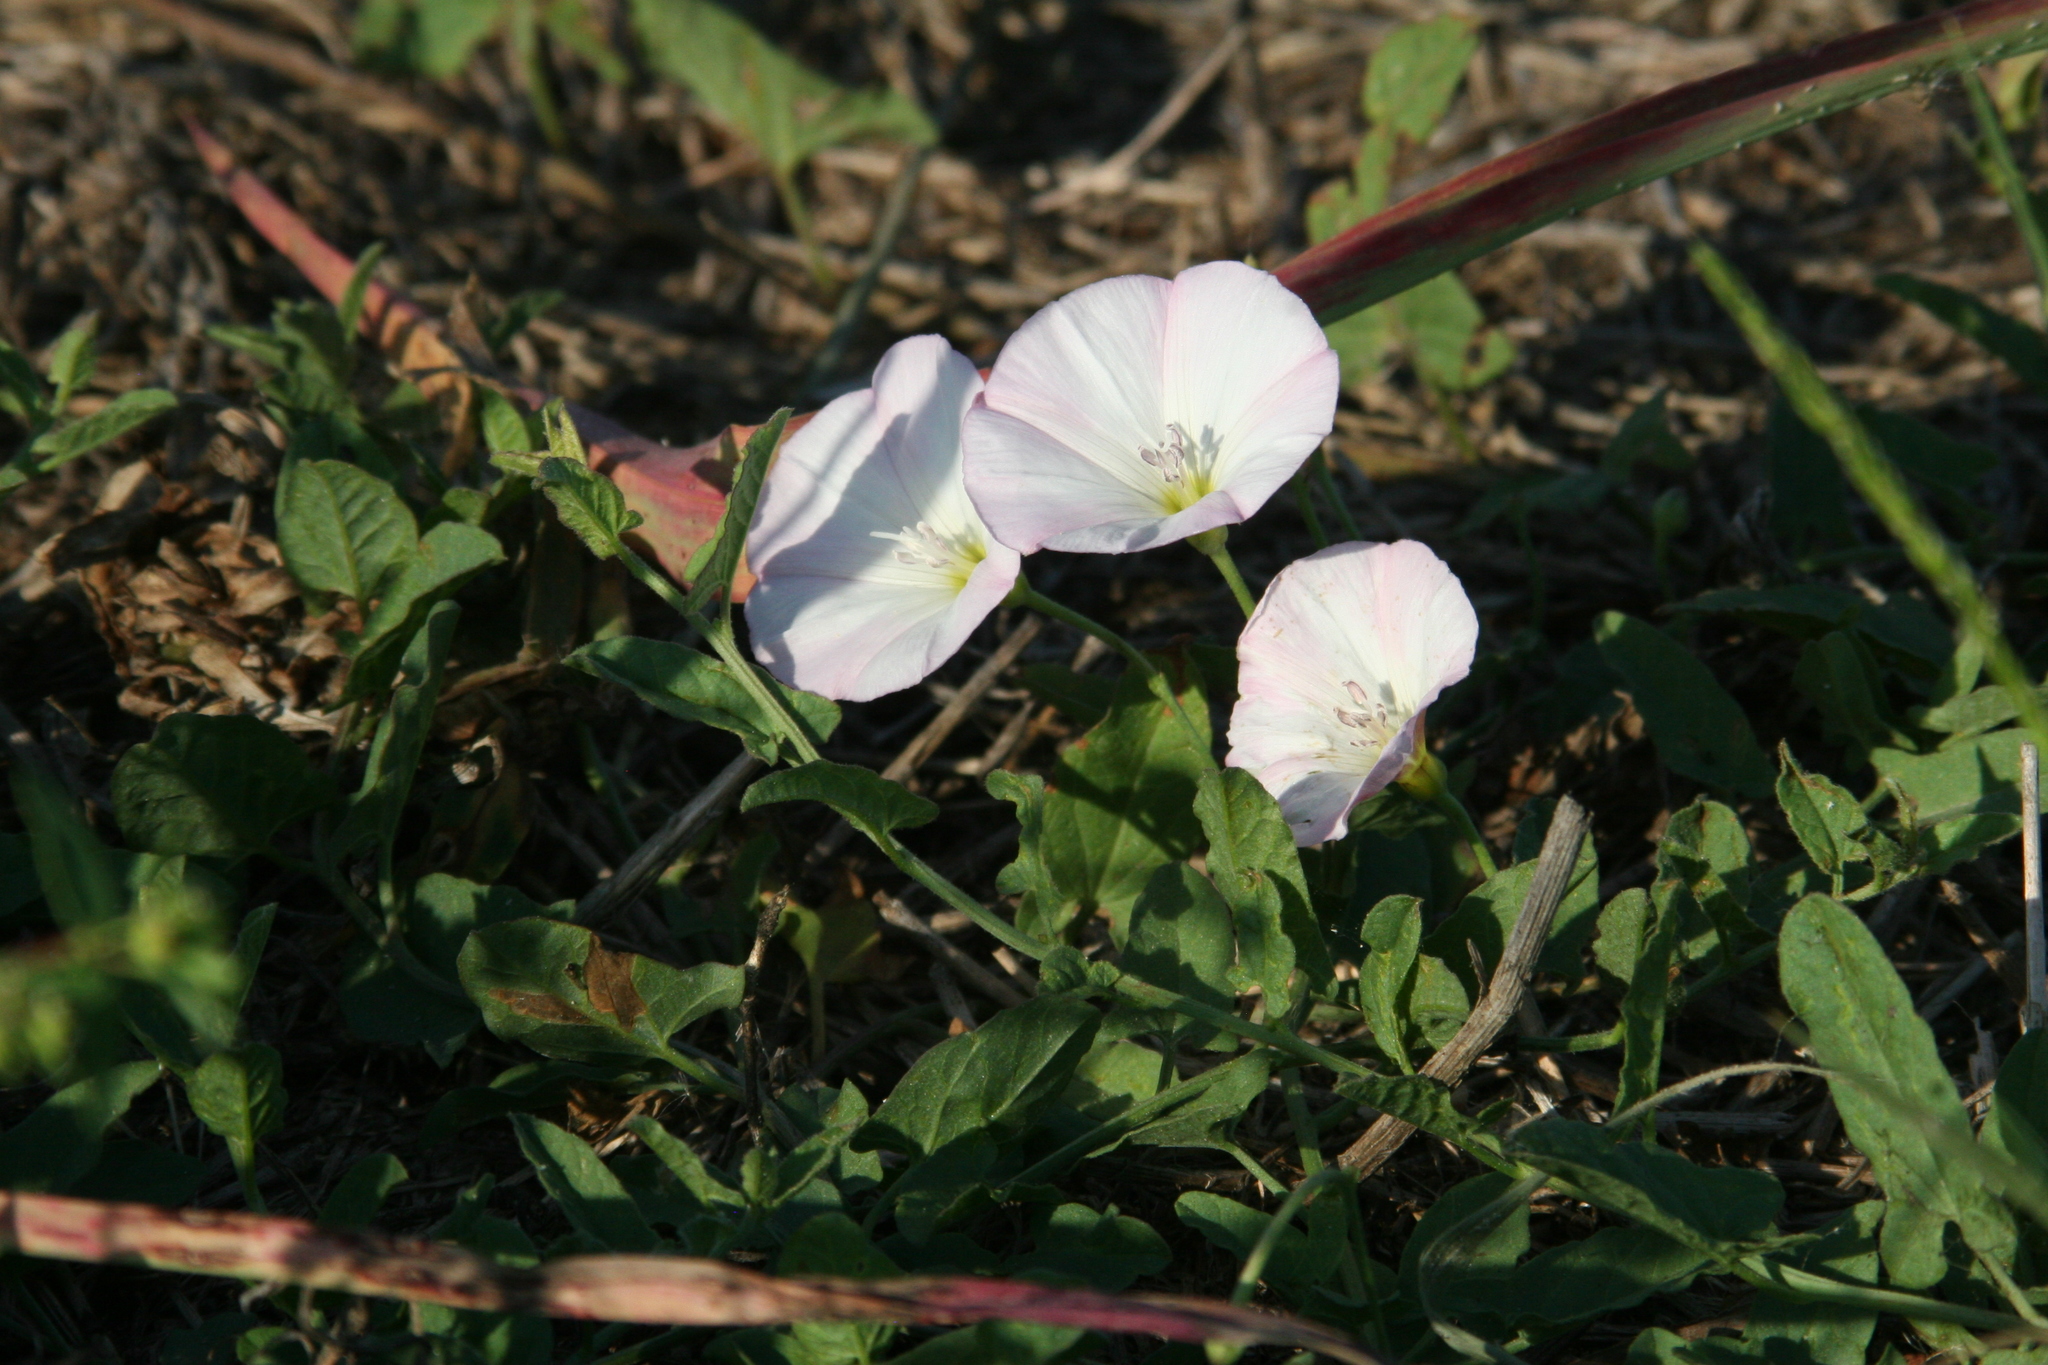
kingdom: Plantae
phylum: Tracheophyta
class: Magnoliopsida
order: Solanales
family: Convolvulaceae
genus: Convolvulus
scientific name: Convolvulus arvensis
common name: Field bindweed
